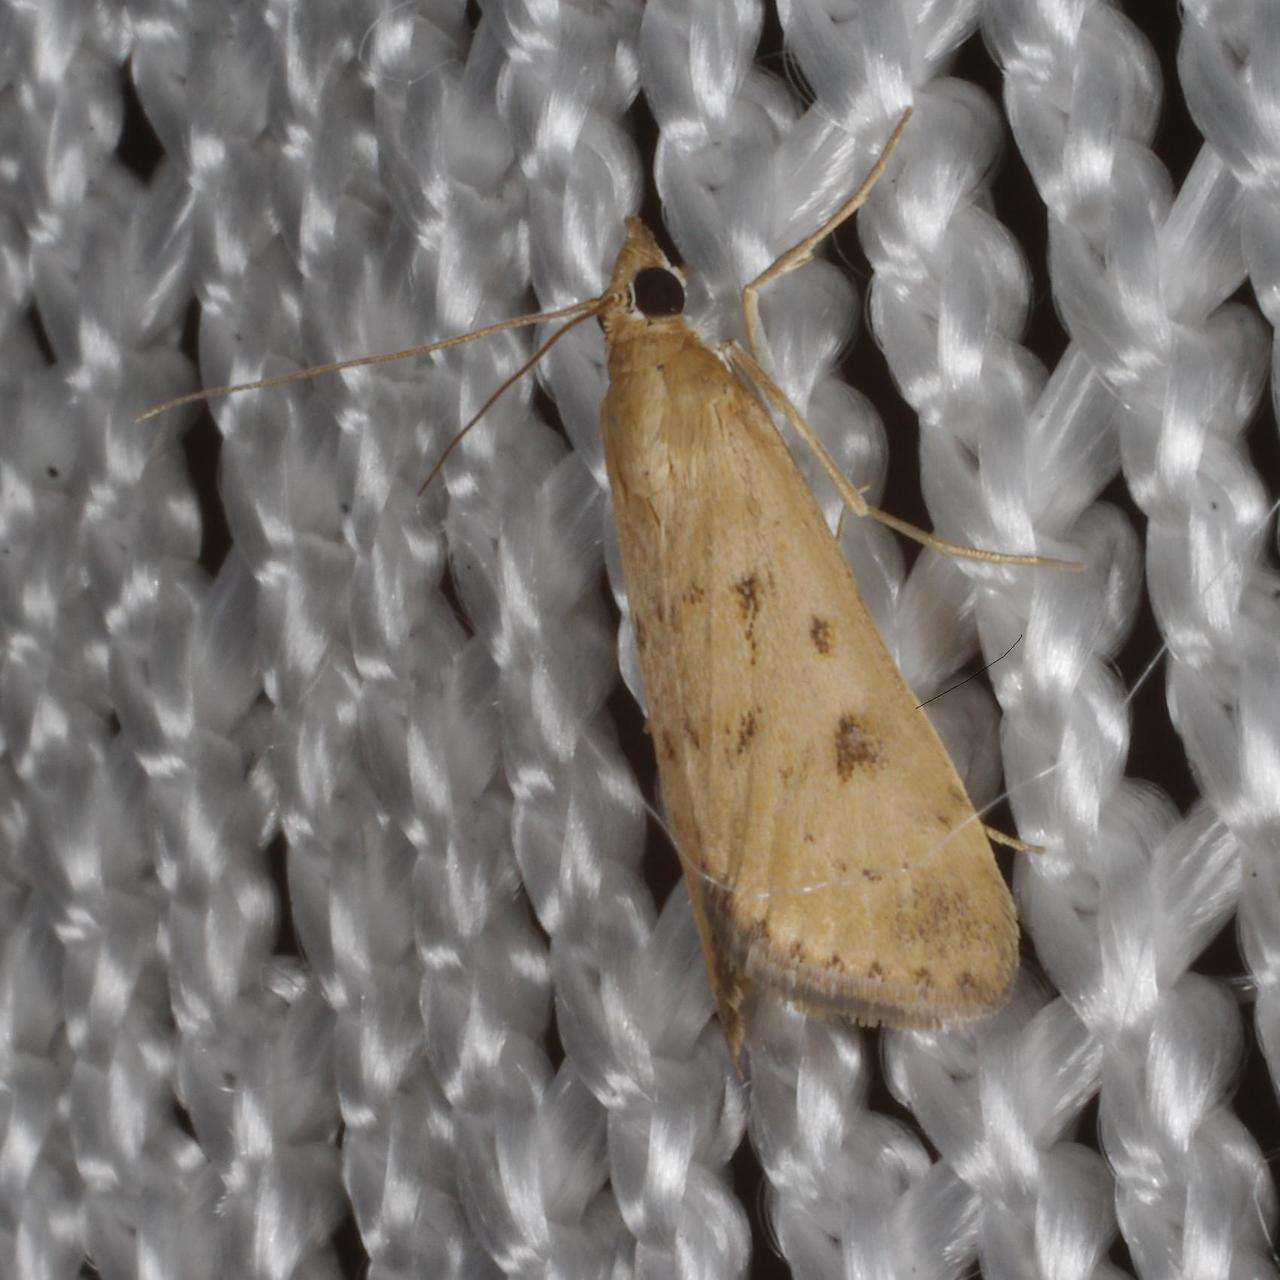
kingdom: Animalia
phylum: Arthropoda
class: Insecta
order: Lepidoptera
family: Crambidae
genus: Achyra
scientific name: Achyra affinitalis
